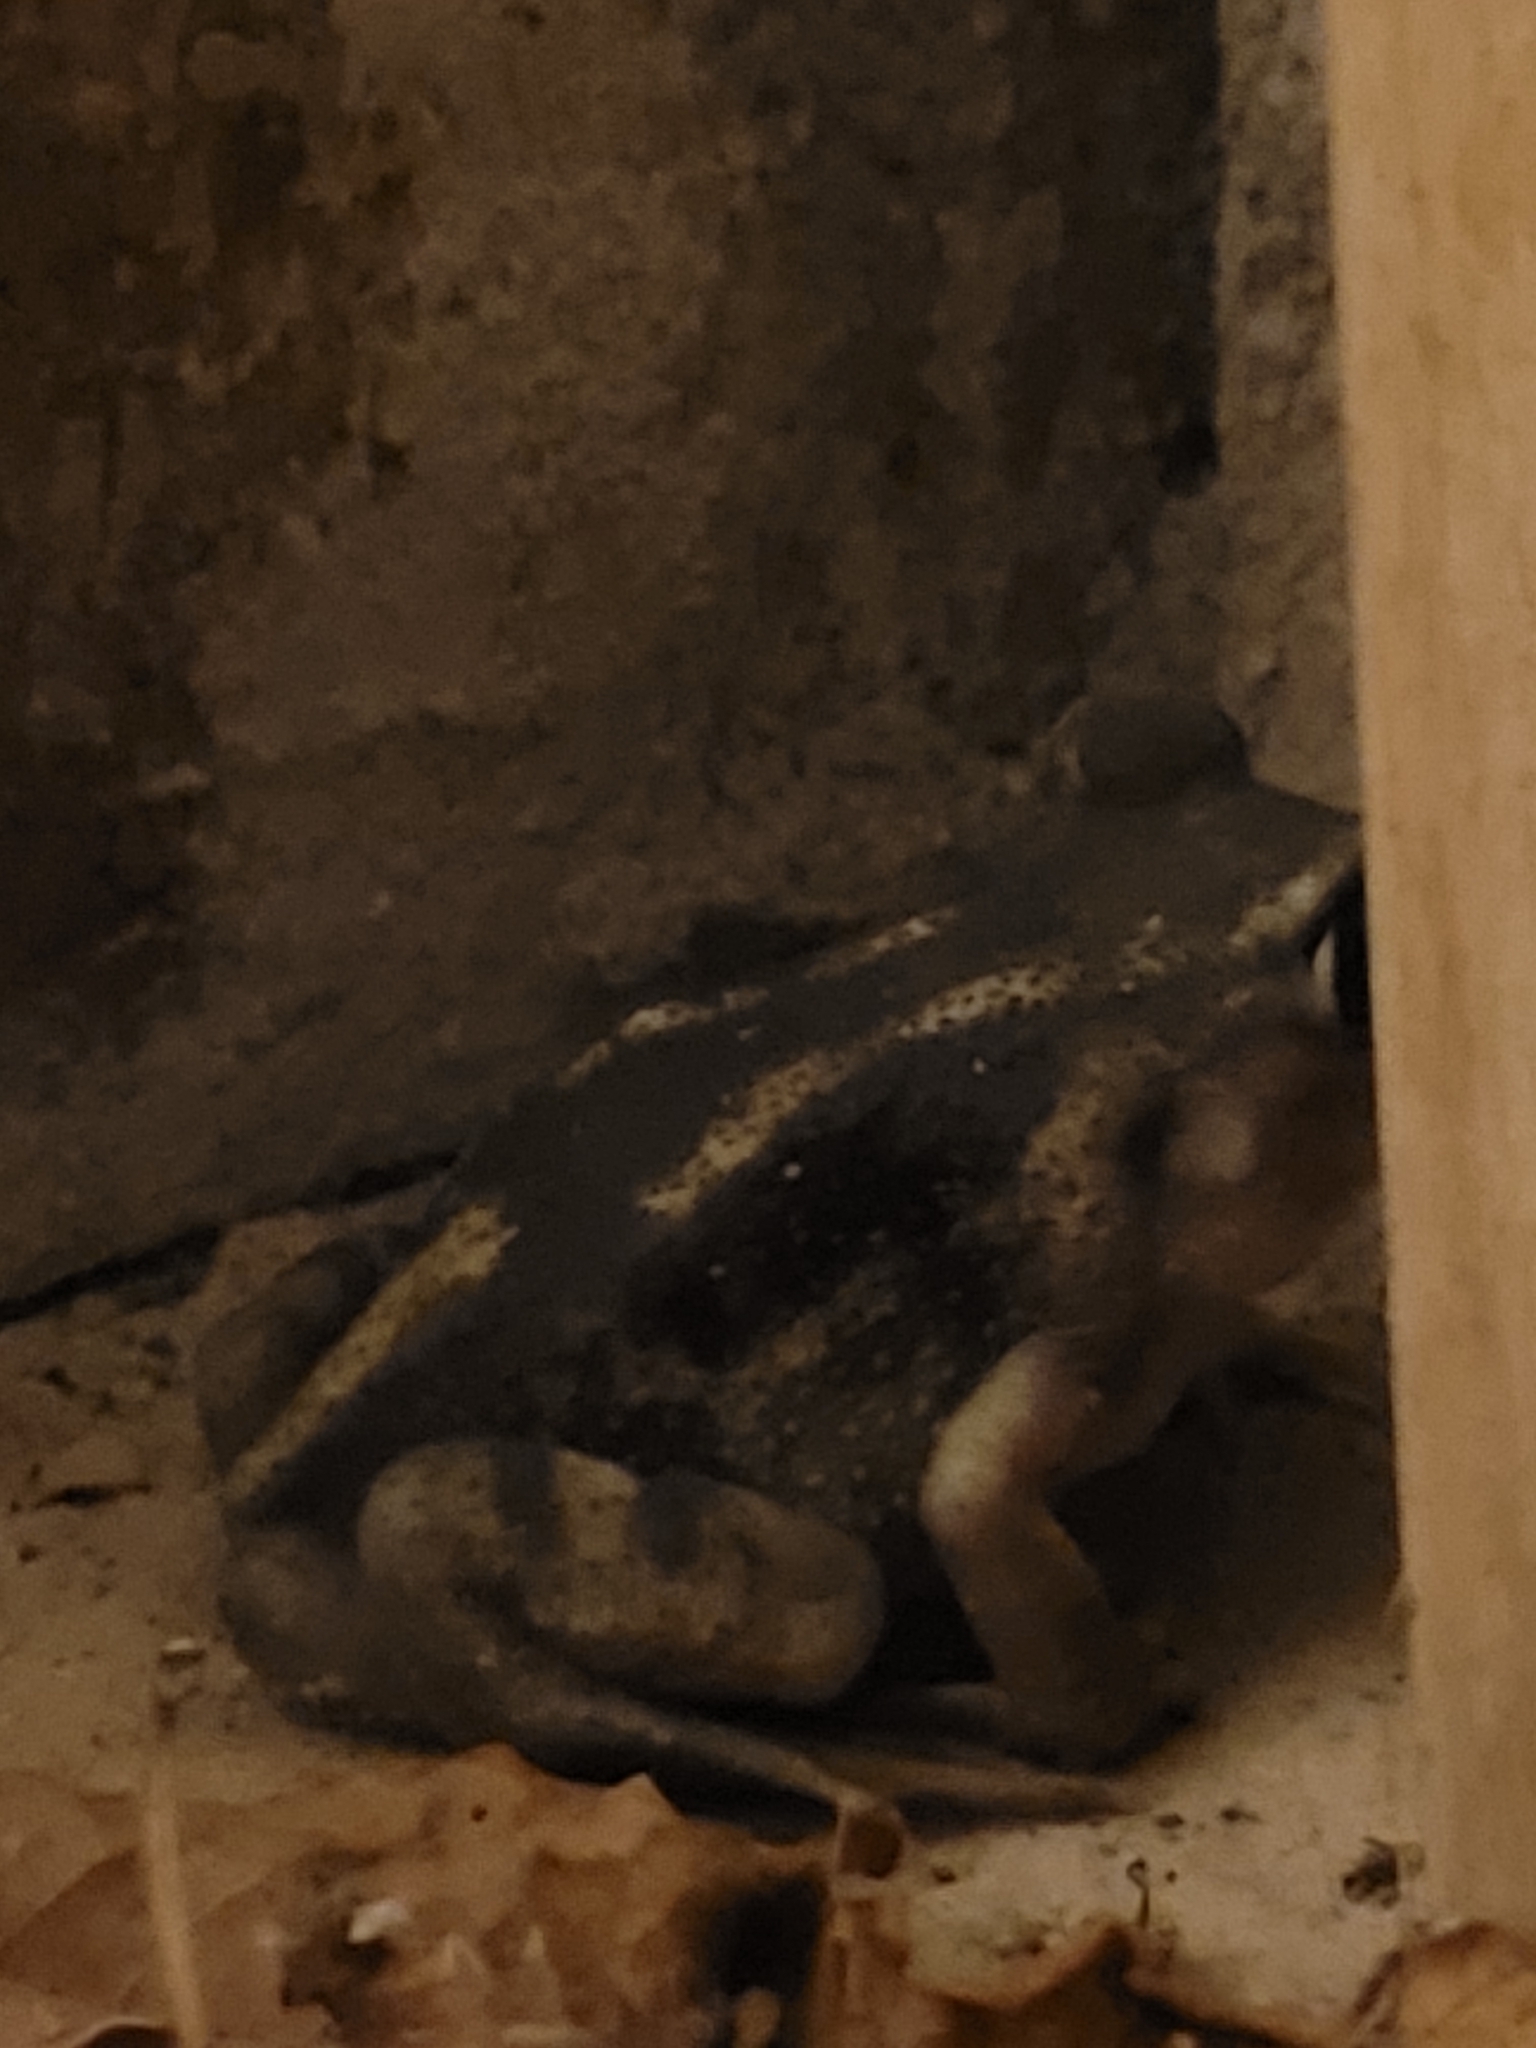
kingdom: Animalia
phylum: Chordata
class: Amphibia
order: Anura
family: Scaphiopodidae
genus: Scaphiopus
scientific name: Scaphiopus holbrookii
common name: Eastern spadefoot toad
